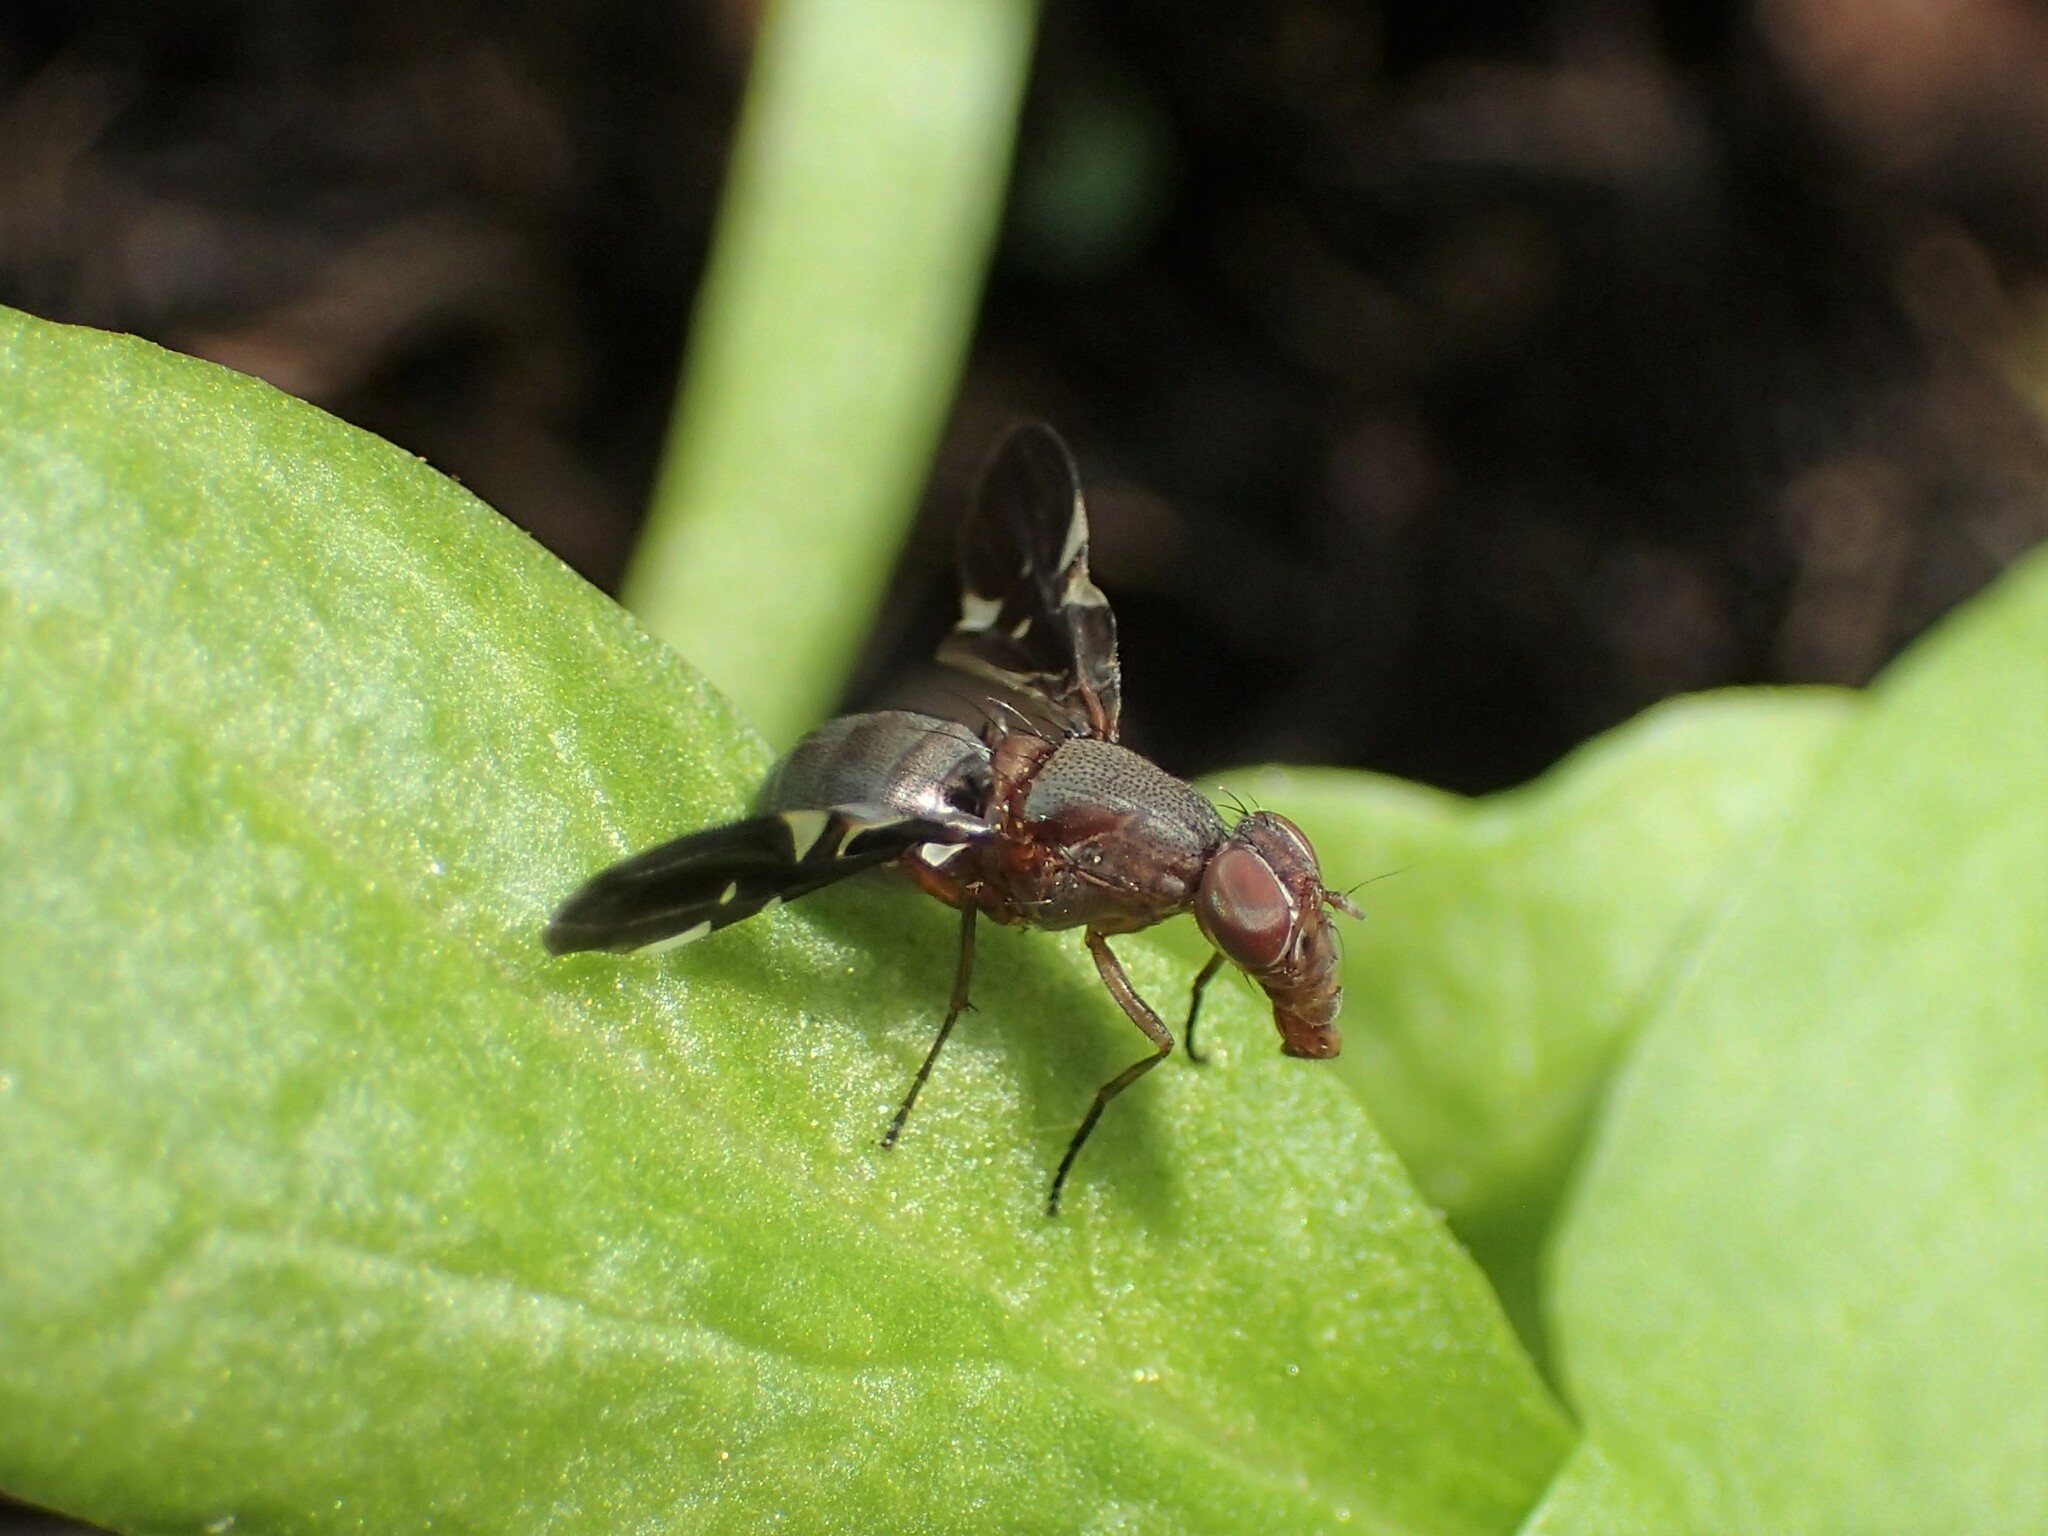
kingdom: Animalia
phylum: Arthropoda
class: Insecta
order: Diptera
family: Ulidiidae
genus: Delphinia
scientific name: Delphinia picta
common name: Common picture-winged fly
